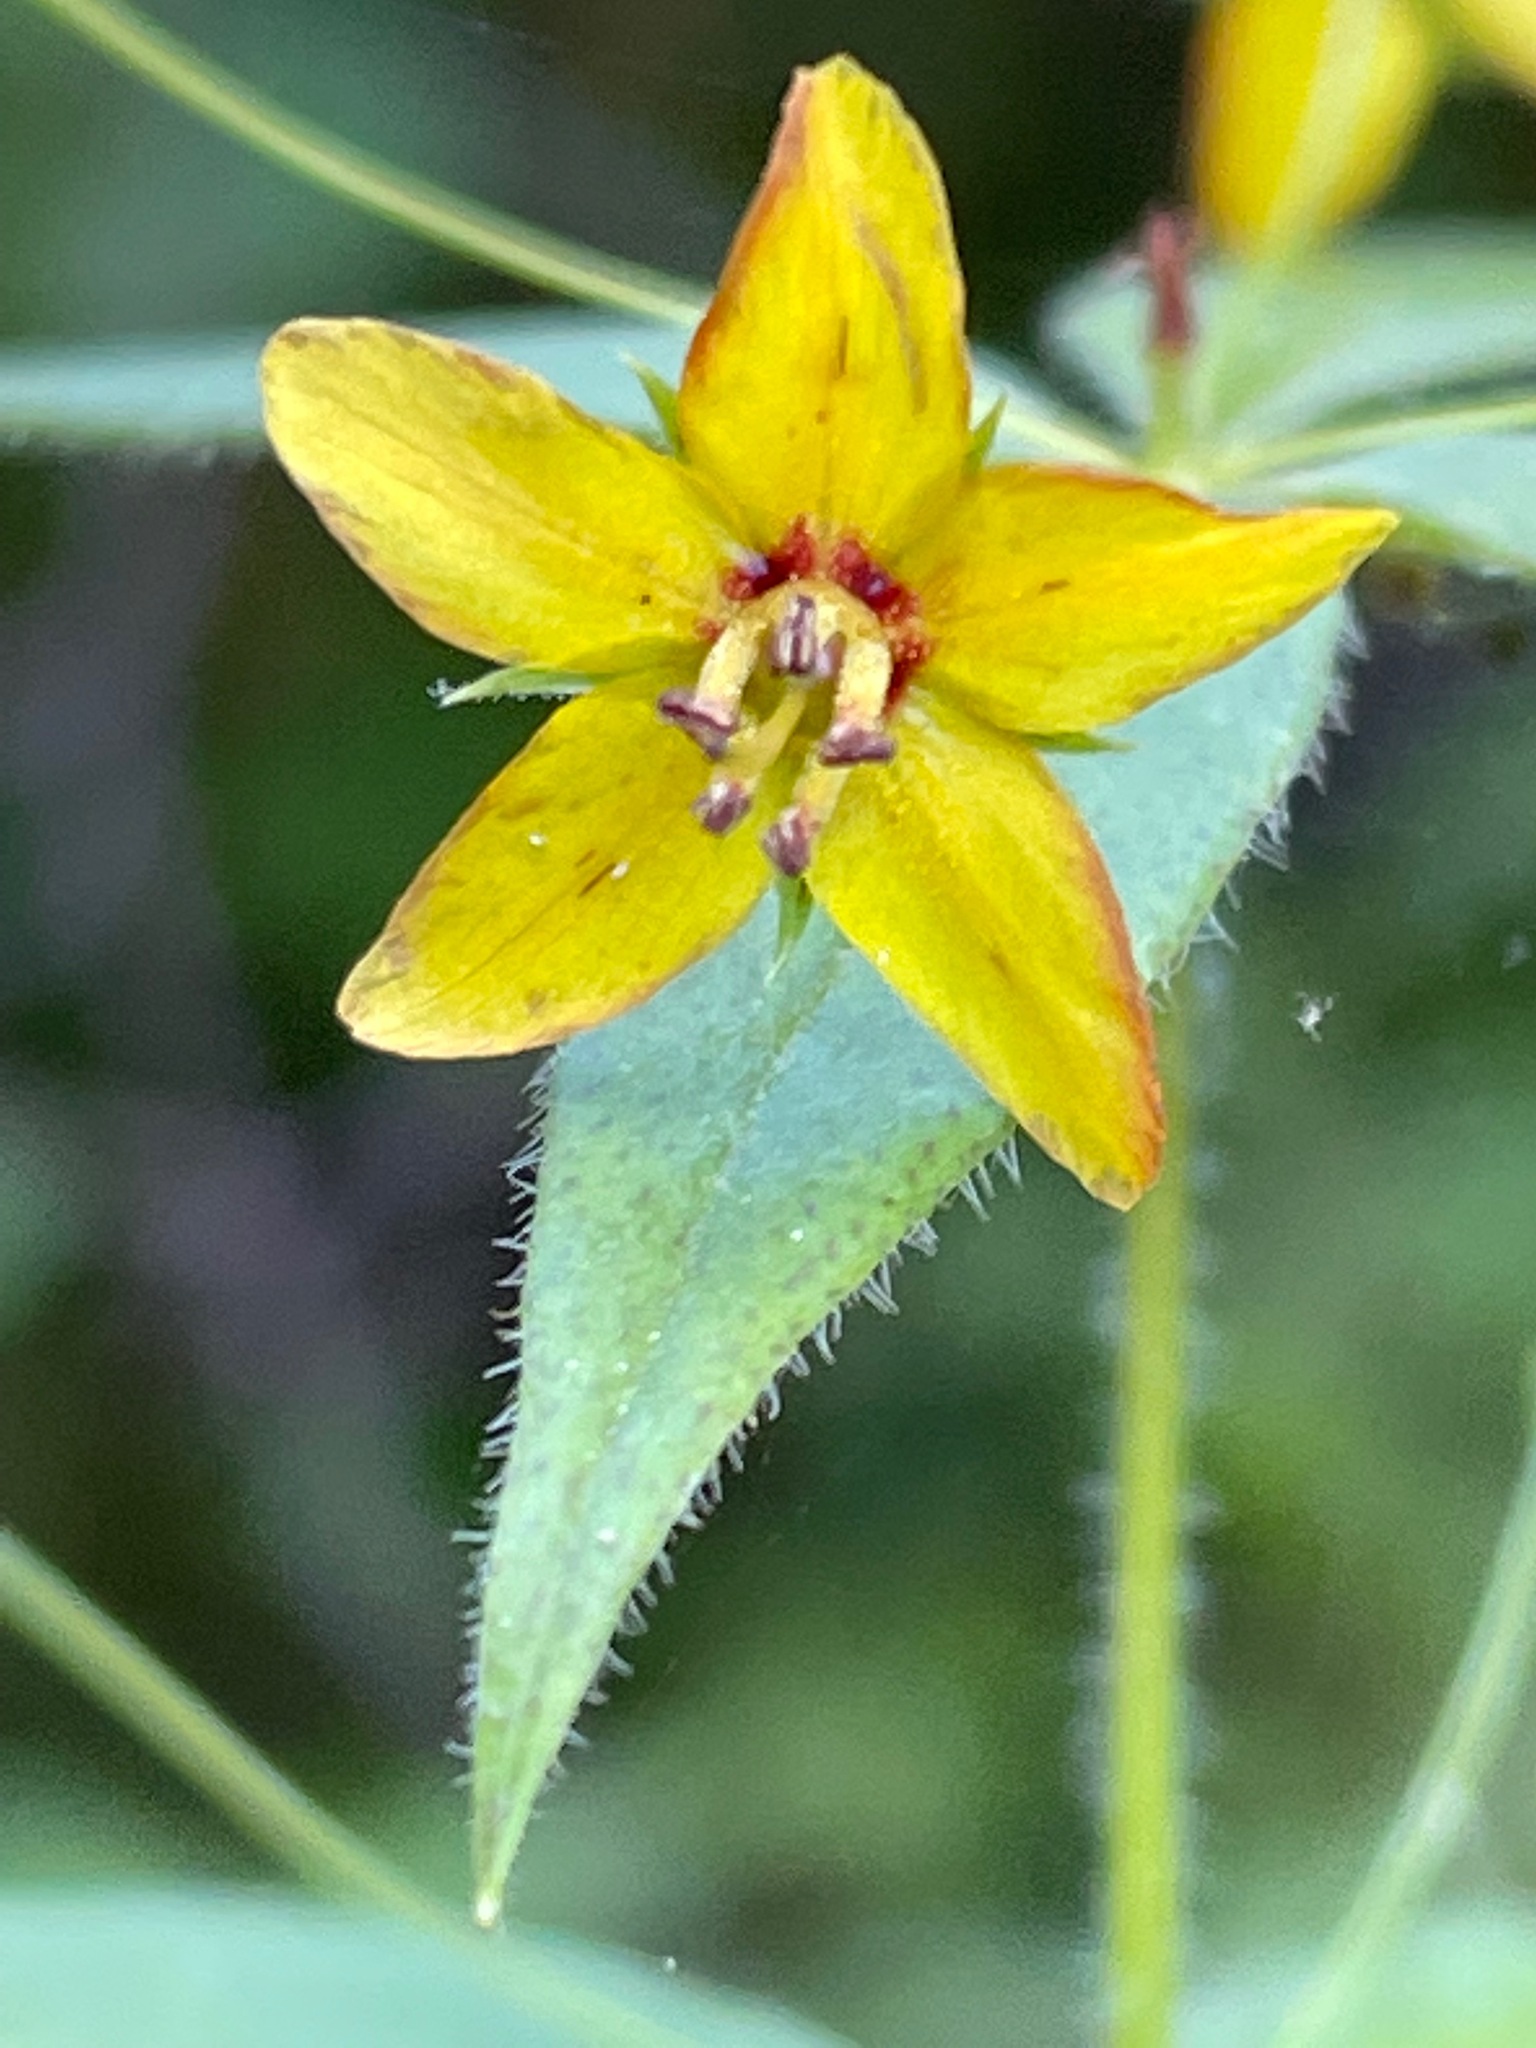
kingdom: Plantae
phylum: Tracheophyta
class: Magnoliopsida
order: Ericales
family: Primulaceae
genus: Lysimachia
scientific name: Lysimachia quadrifolia
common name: Whorled loosestrife
